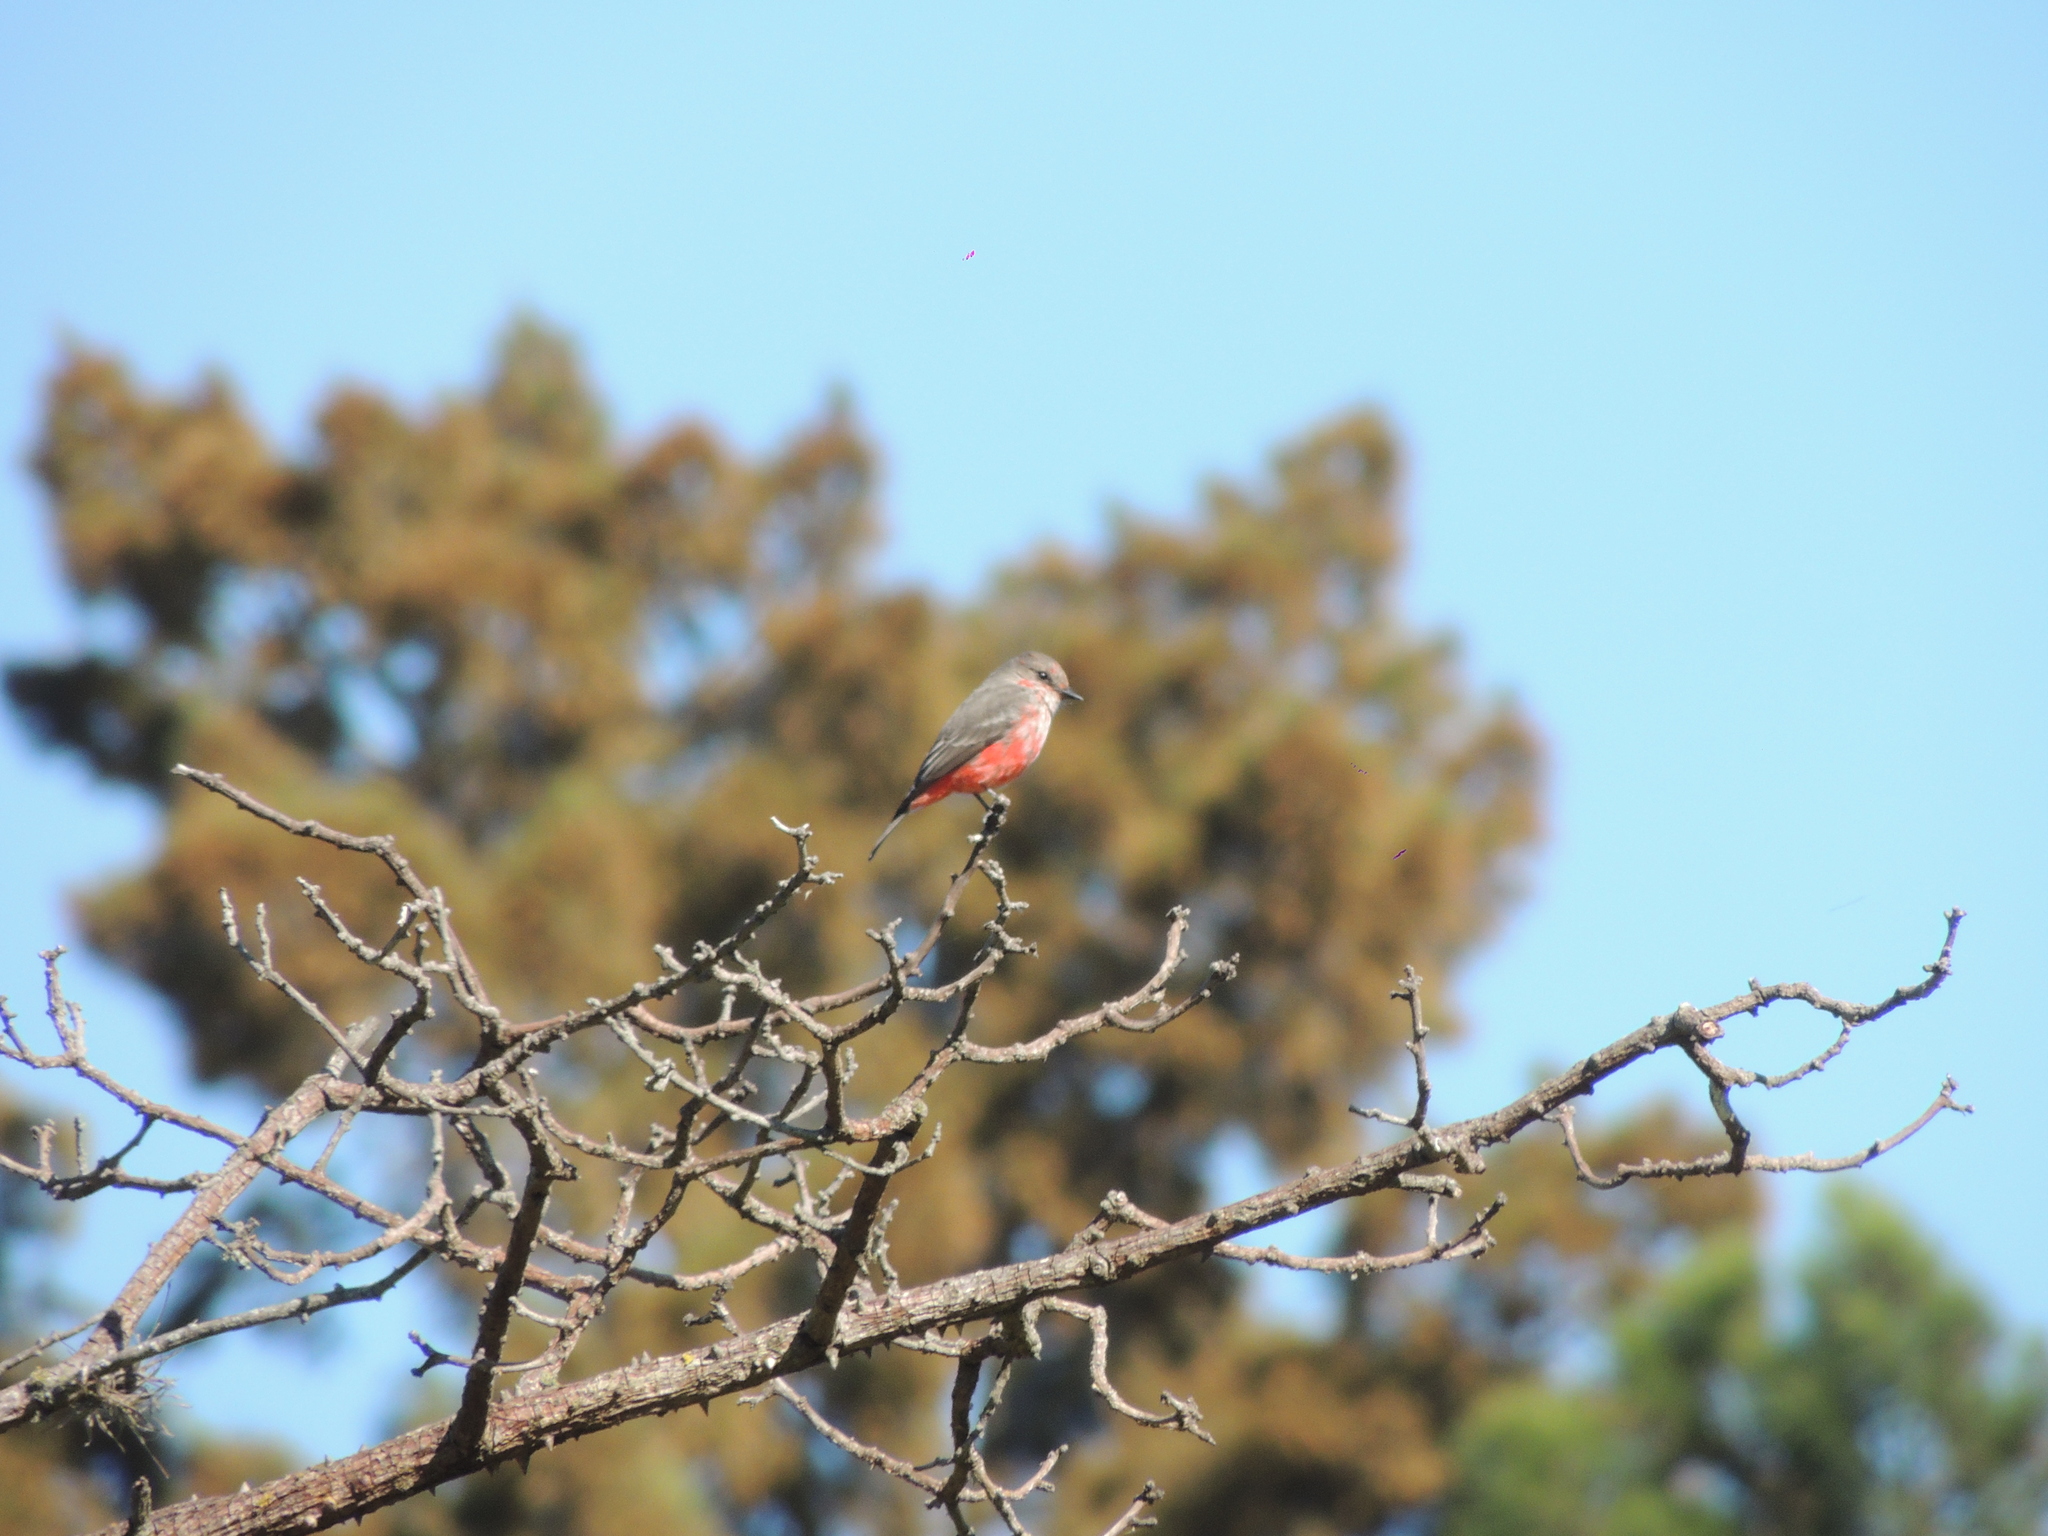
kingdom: Animalia
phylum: Chordata
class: Aves
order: Passeriformes
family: Tyrannidae
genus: Pyrocephalus
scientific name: Pyrocephalus rubinus
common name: Vermilion flycatcher
